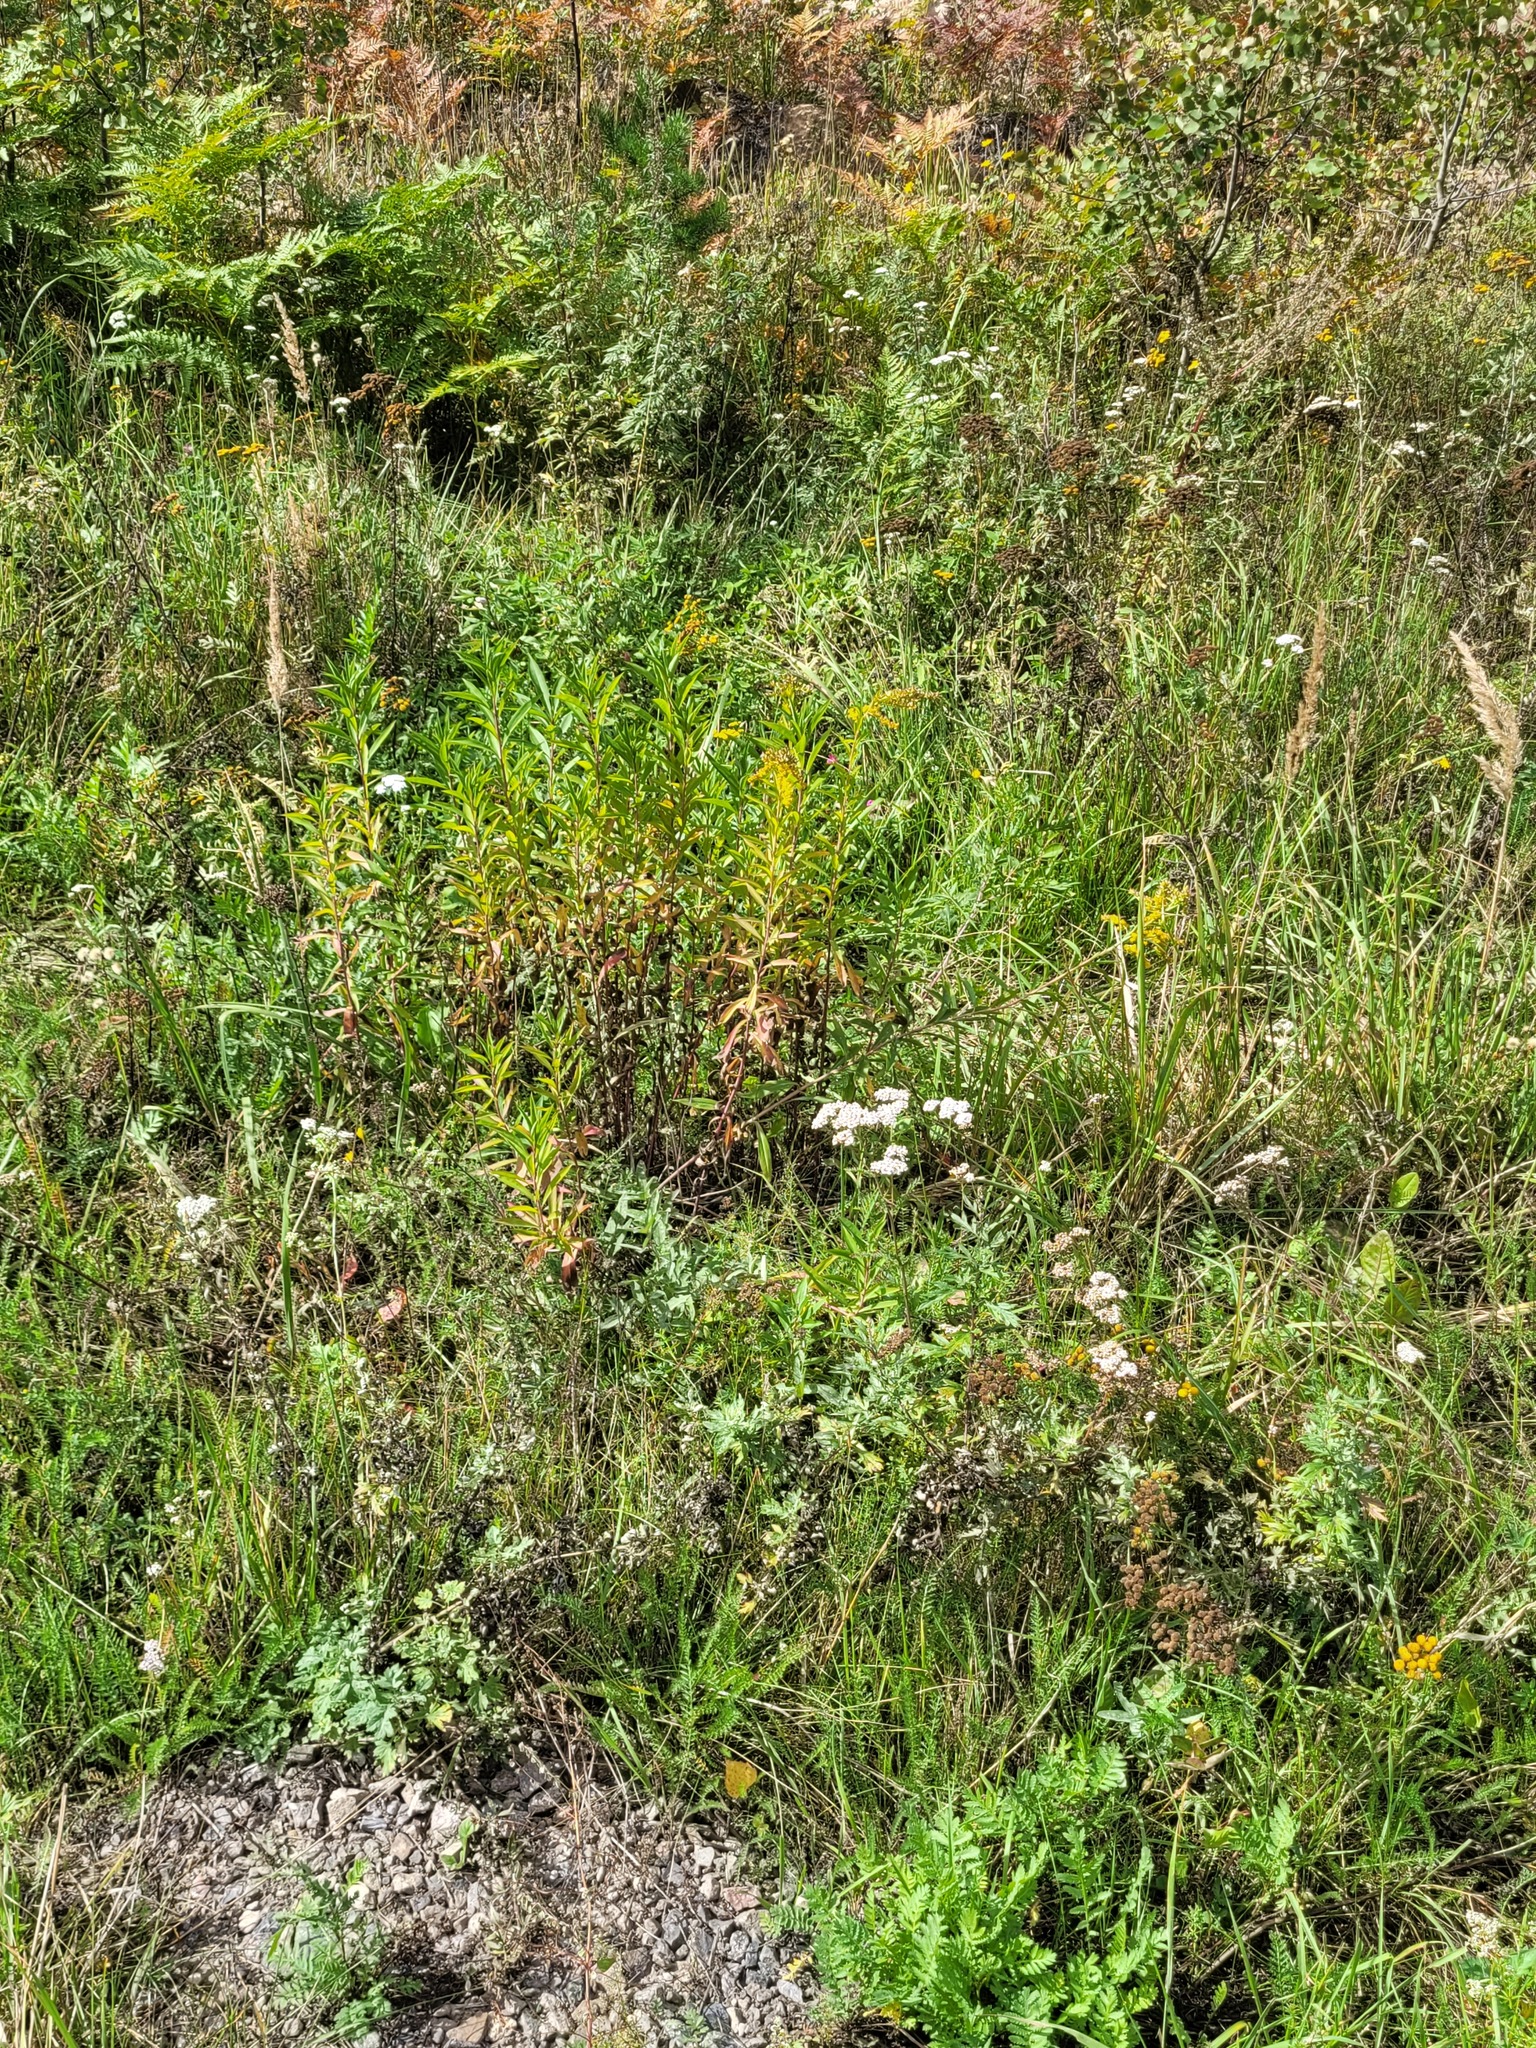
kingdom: Plantae
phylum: Tracheophyta
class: Magnoliopsida
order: Asterales
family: Asteraceae
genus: Solidago
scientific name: Solidago gigantea
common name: Giant goldenrod
